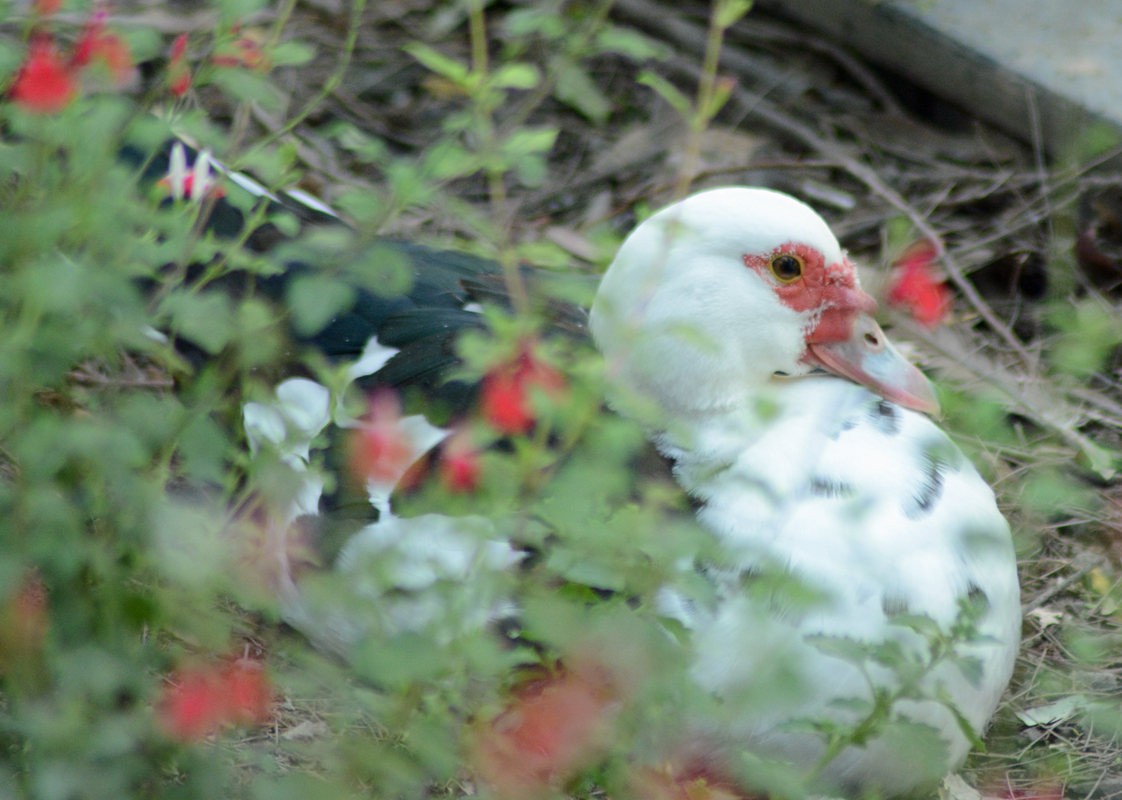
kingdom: Animalia
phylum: Chordata
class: Aves
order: Anseriformes
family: Anatidae
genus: Cairina
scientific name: Cairina moschata
